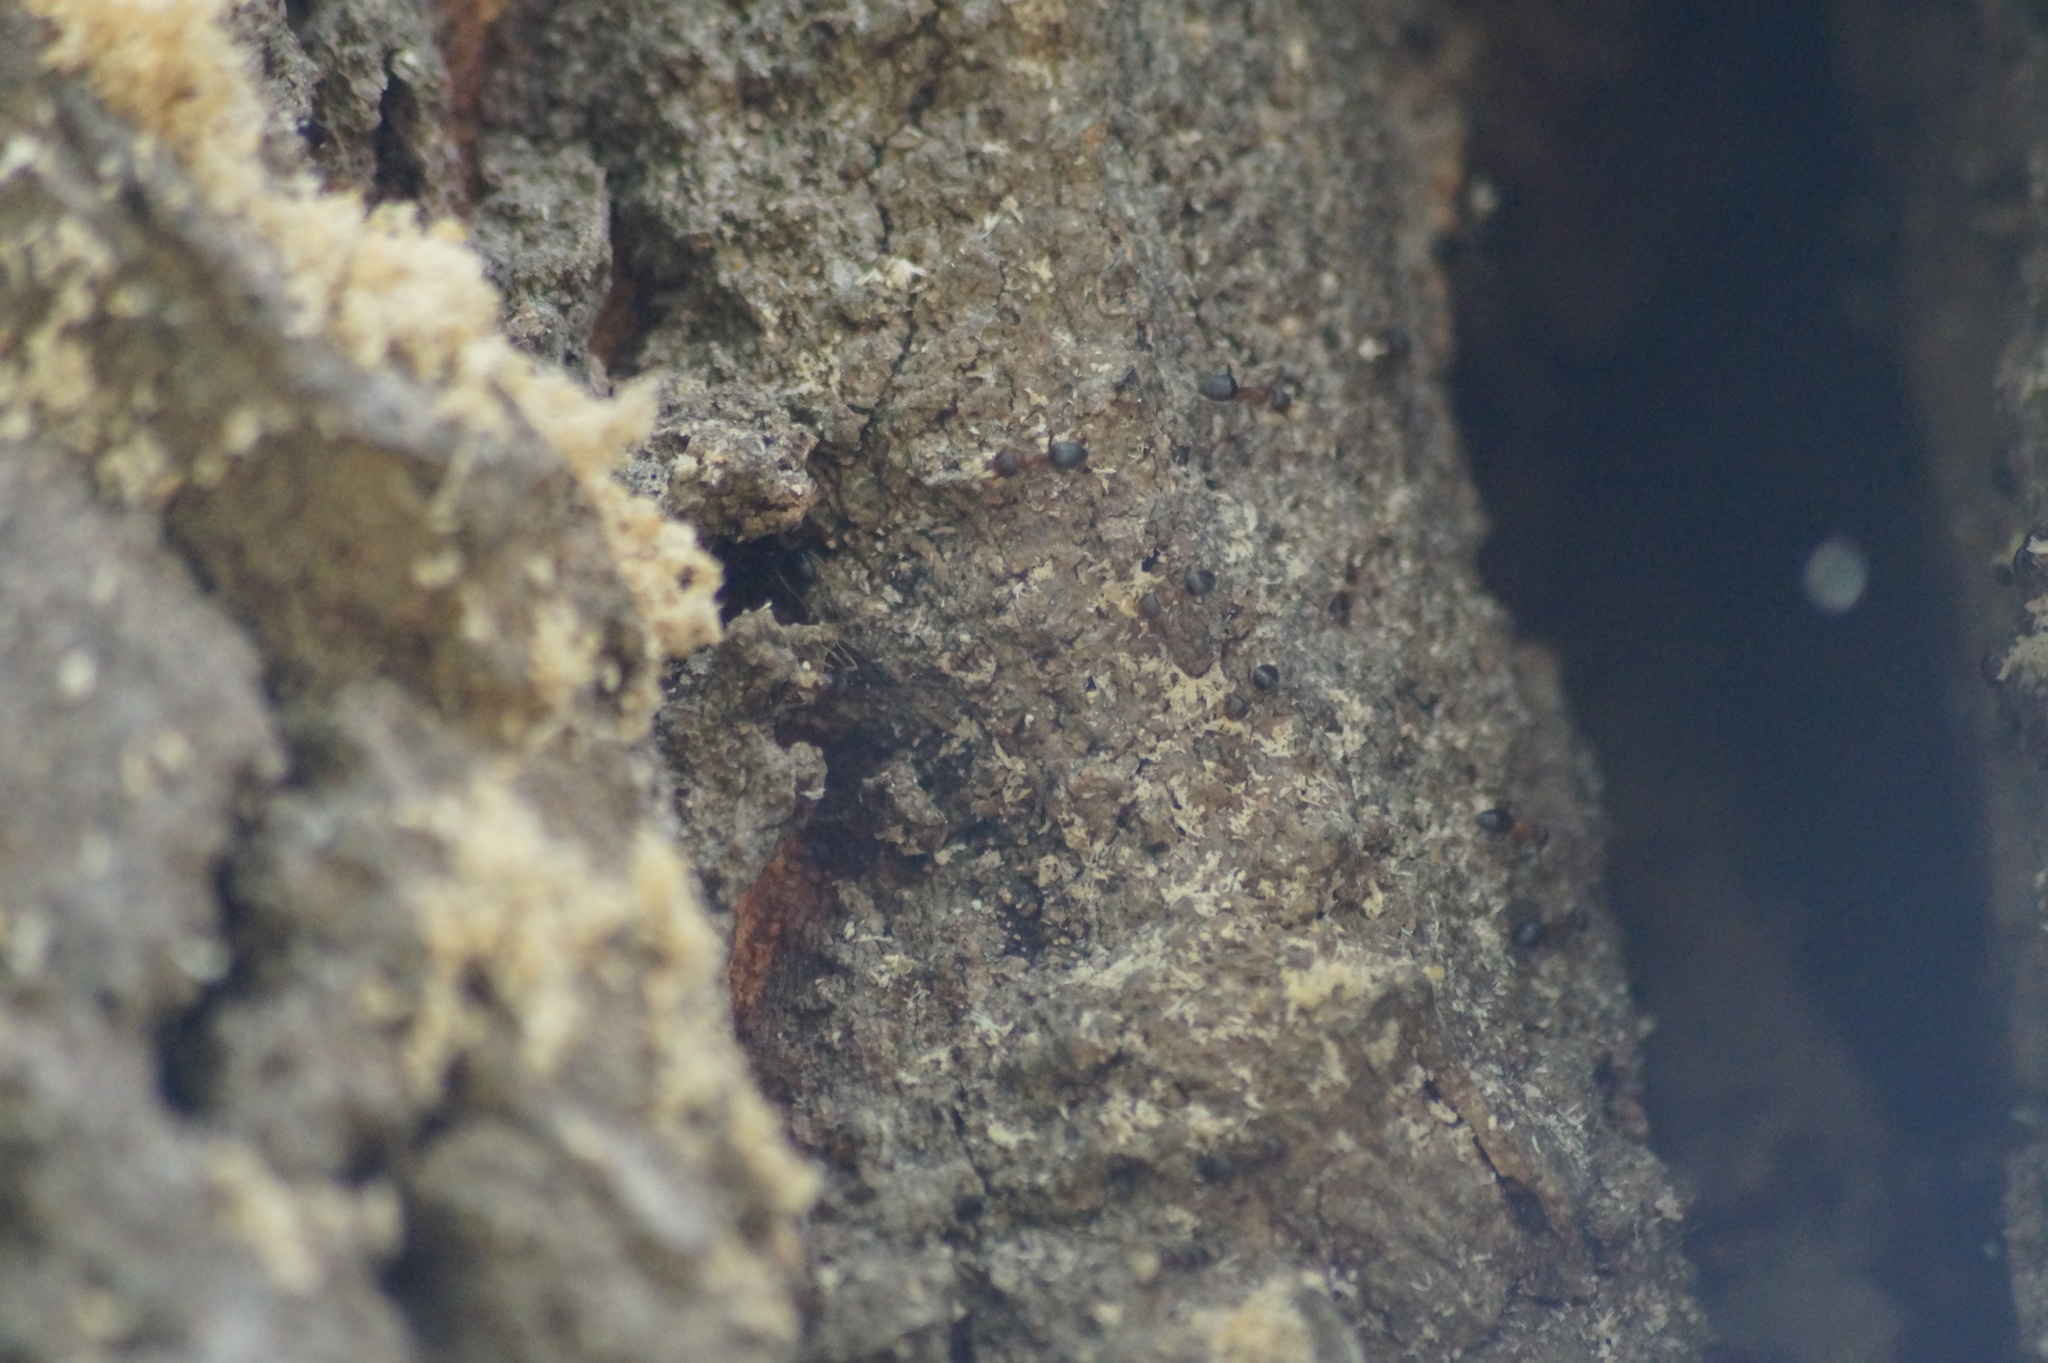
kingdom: Animalia
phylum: Arthropoda
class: Insecta
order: Hymenoptera
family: Formicidae
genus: Lasius
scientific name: Lasius brunneus
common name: Brown ant
